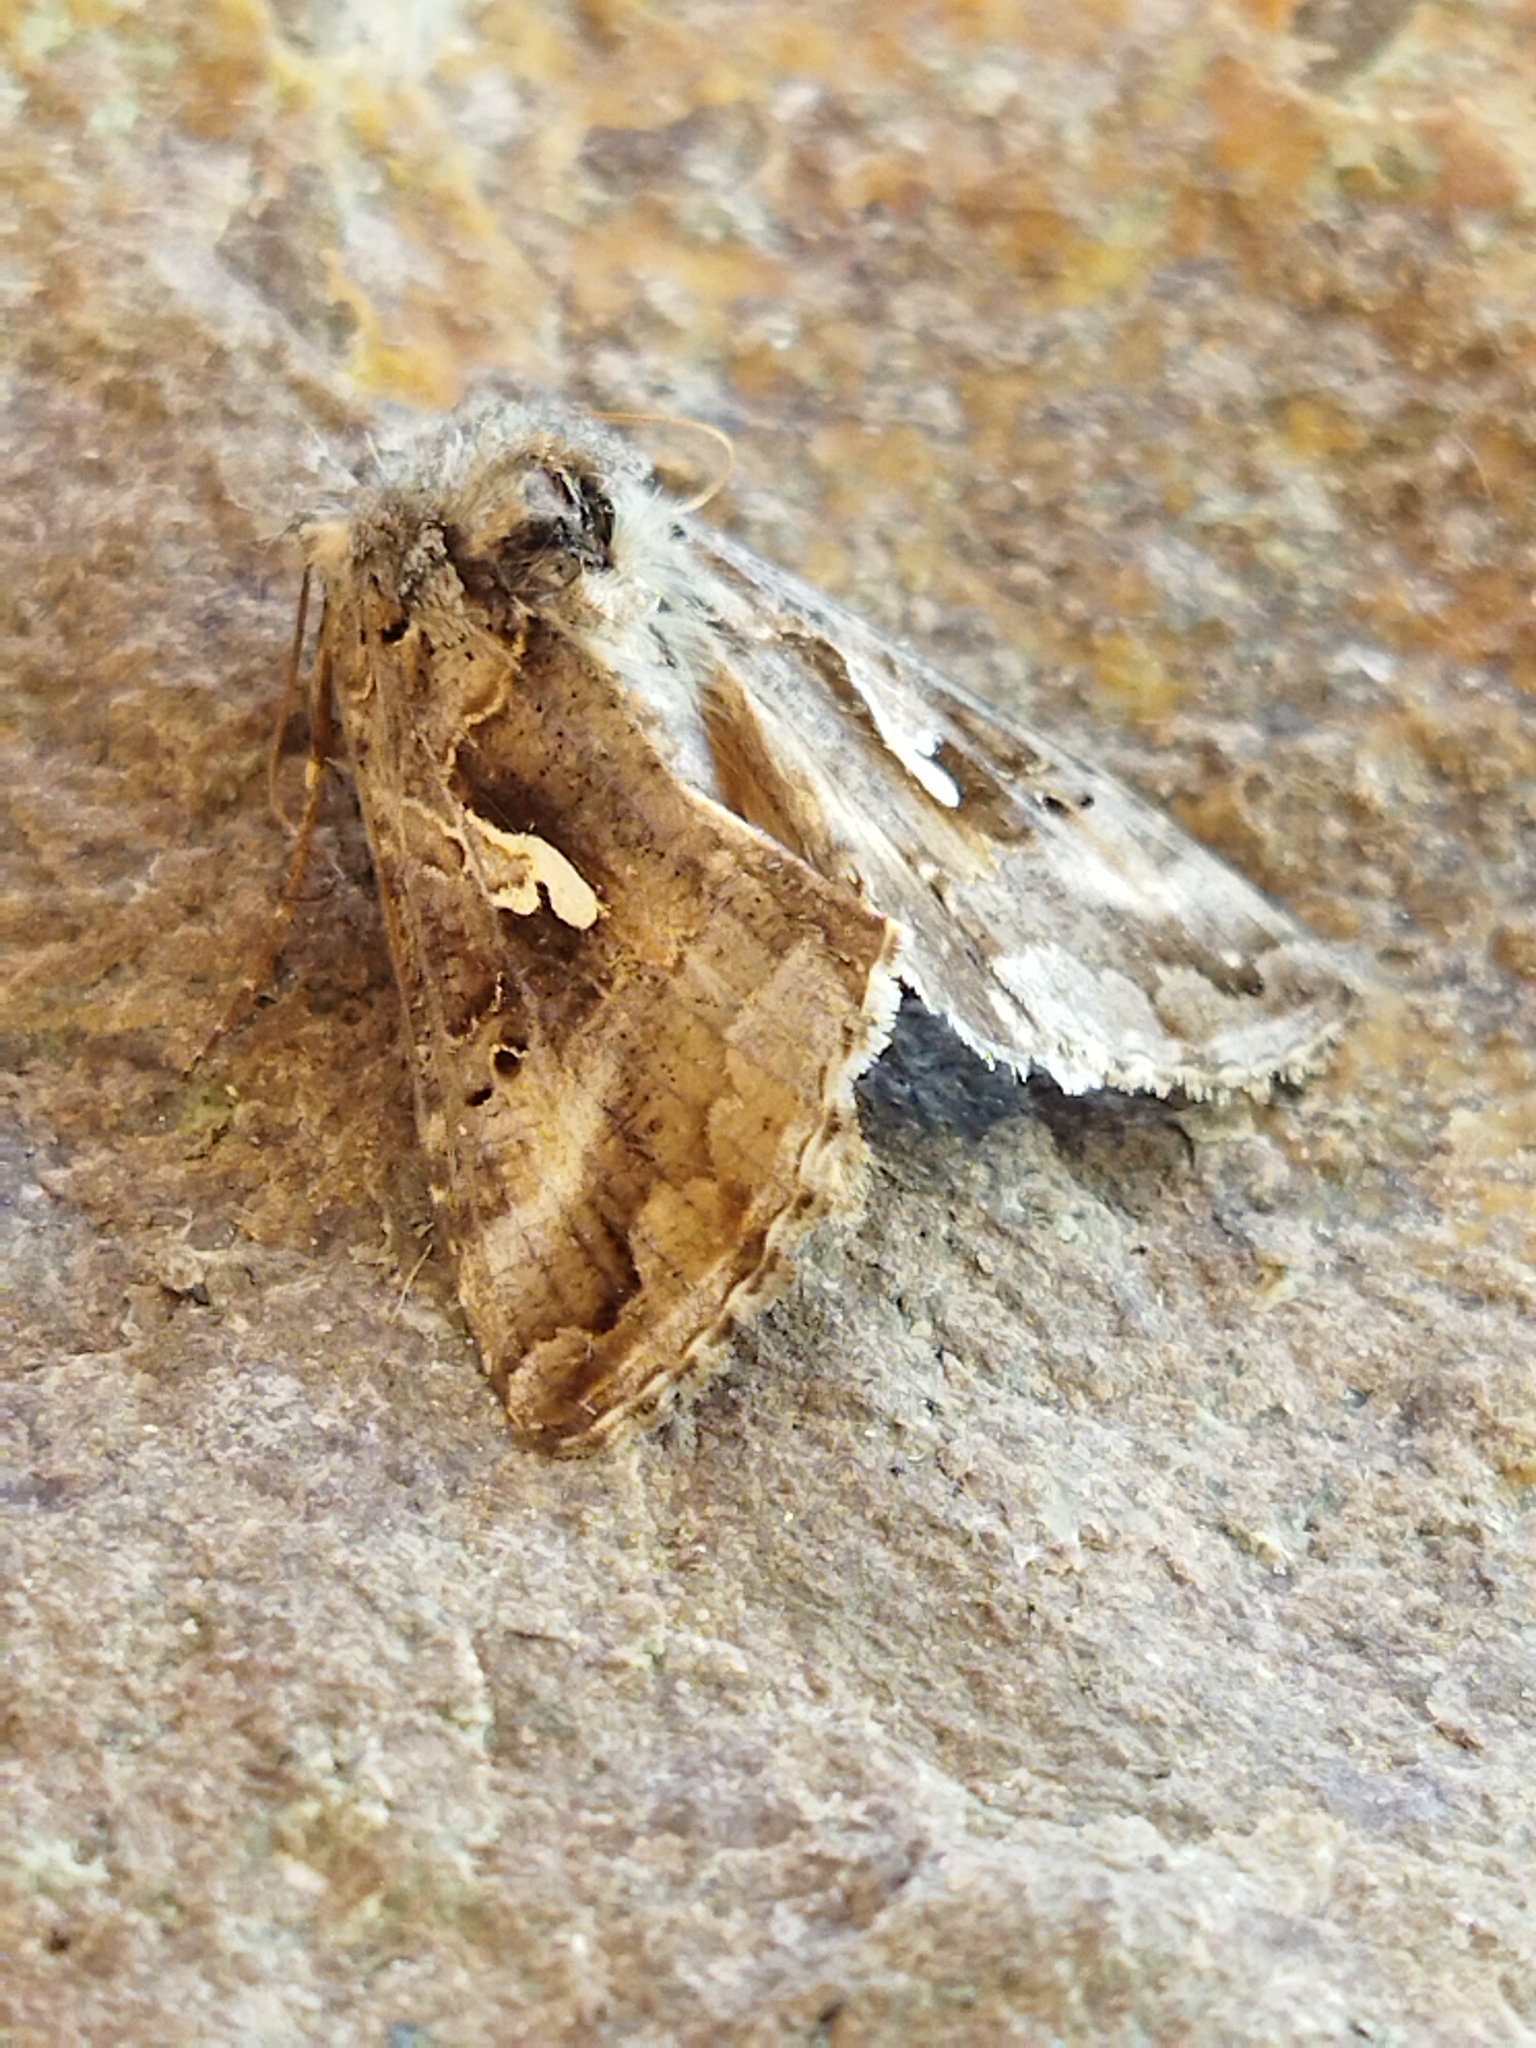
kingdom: Animalia
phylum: Arthropoda
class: Insecta
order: Lepidoptera
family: Noctuidae
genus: Autographa
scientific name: Autographa gamma
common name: Silver y
